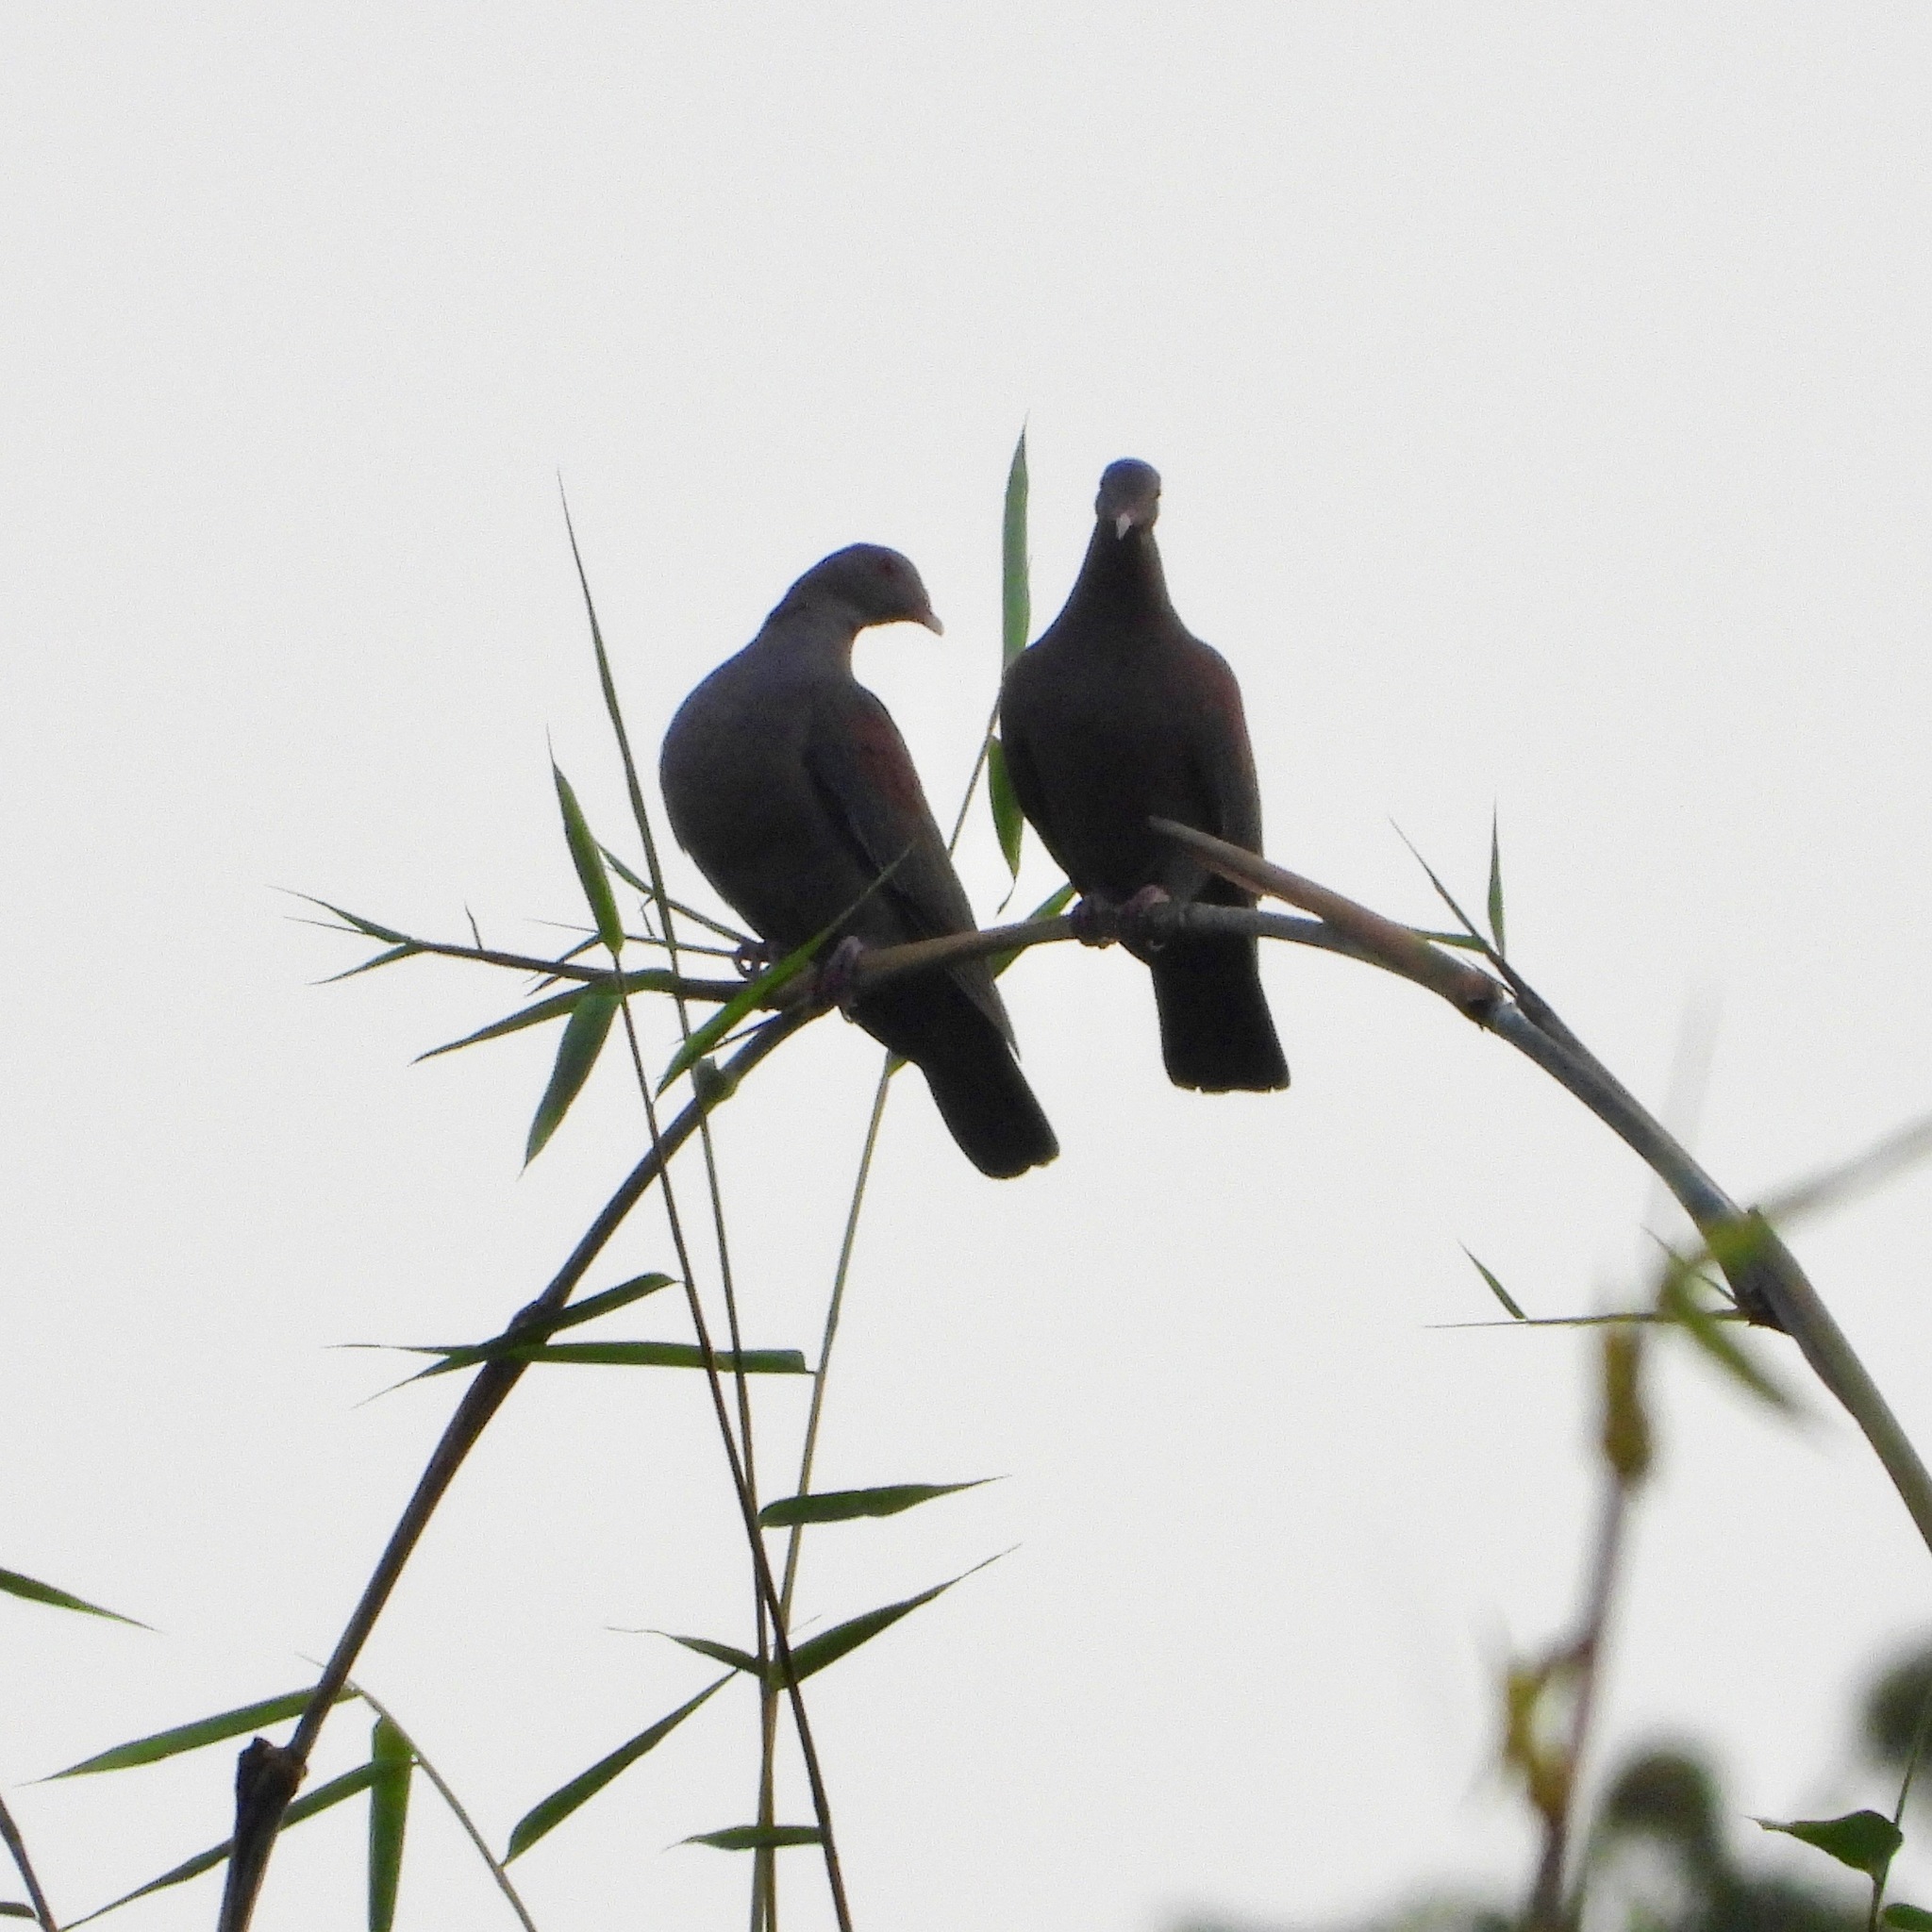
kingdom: Animalia
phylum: Chordata
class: Aves
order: Columbiformes
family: Columbidae
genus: Patagioenas
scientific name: Patagioenas flavirostris
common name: Red-billed pigeon
